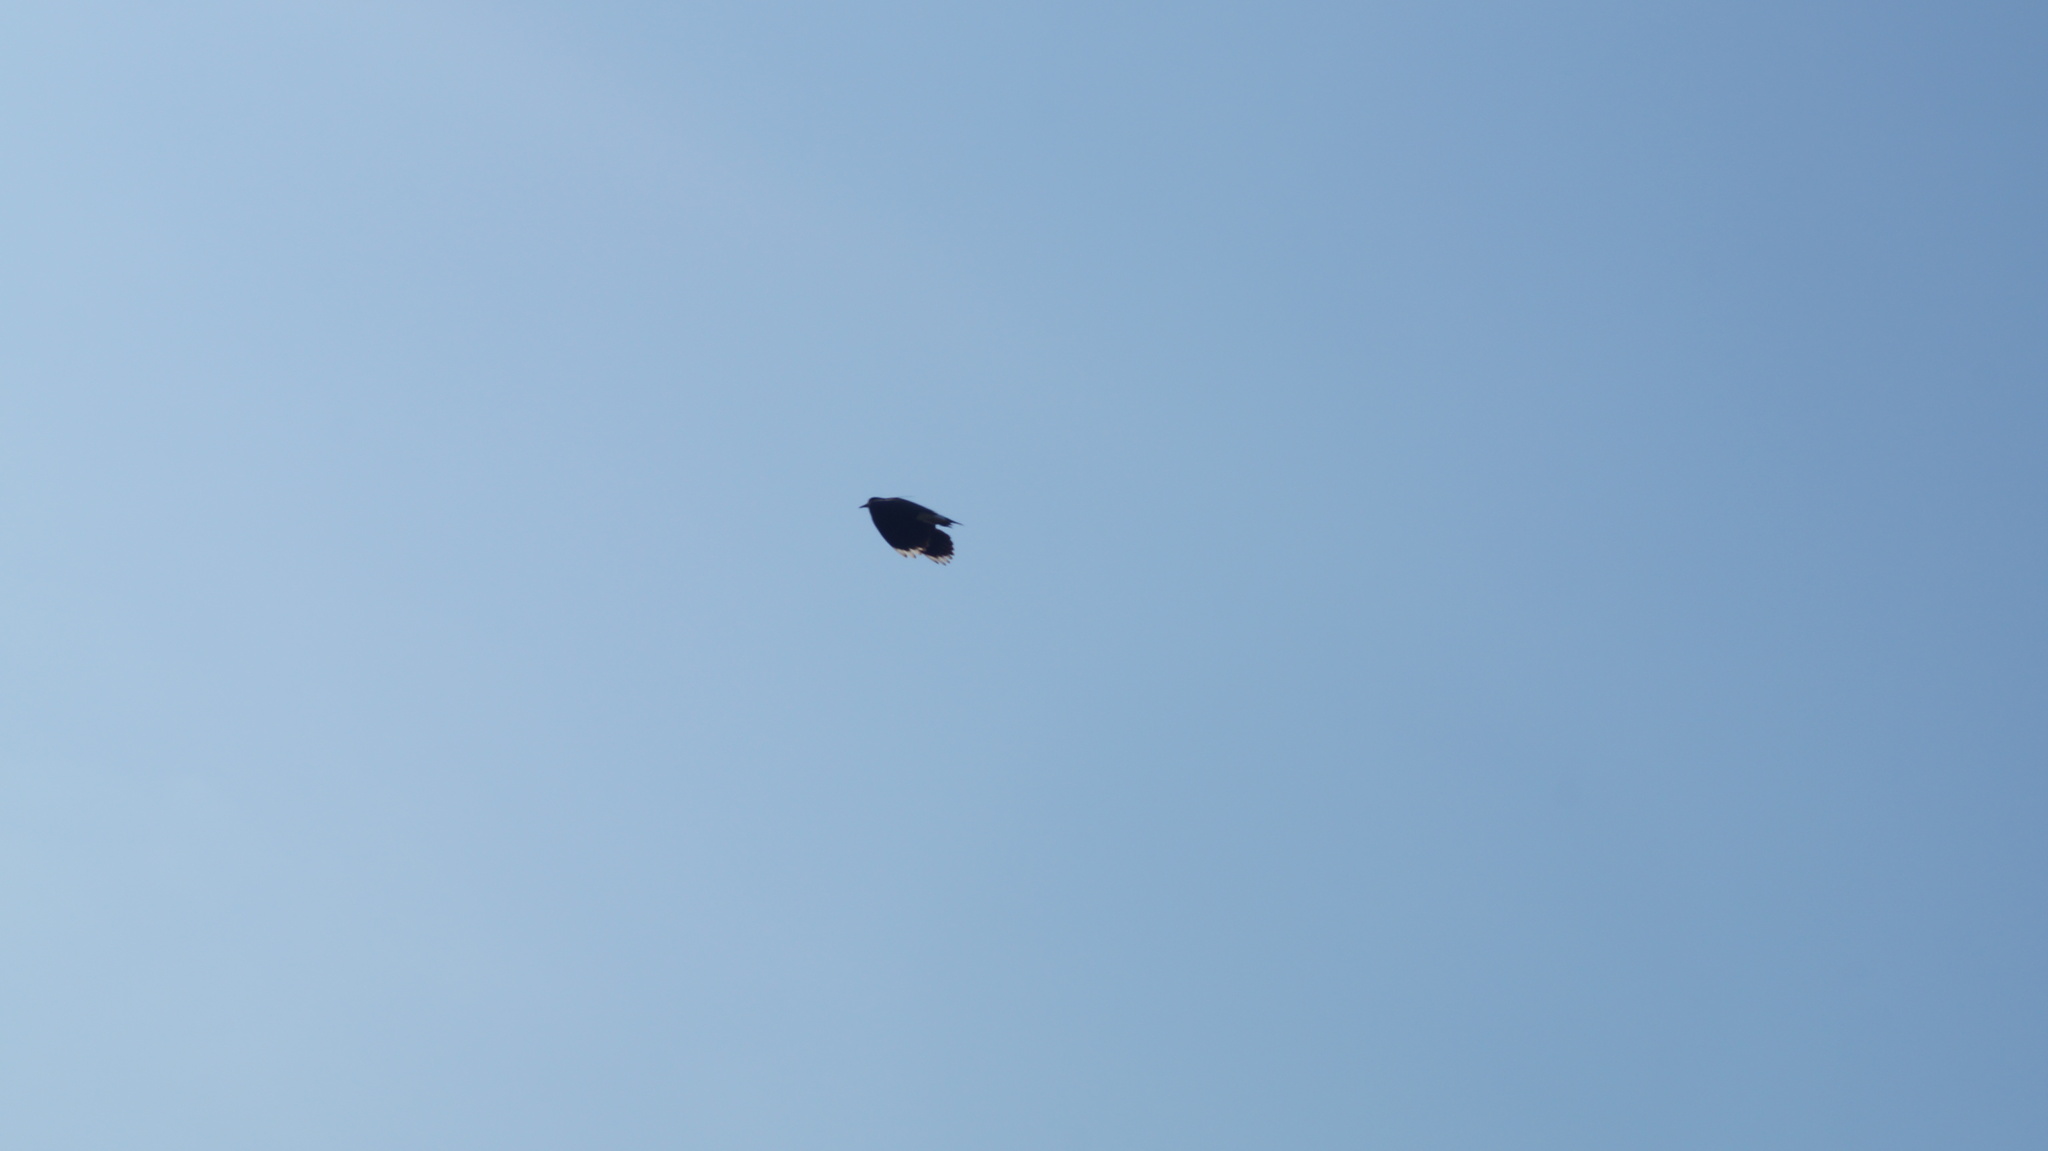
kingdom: Animalia
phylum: Chordata
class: Aves
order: Charadriiformes
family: Charadriidae
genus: Vanellus
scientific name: Vanellus vanellus
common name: Northern lapwing
